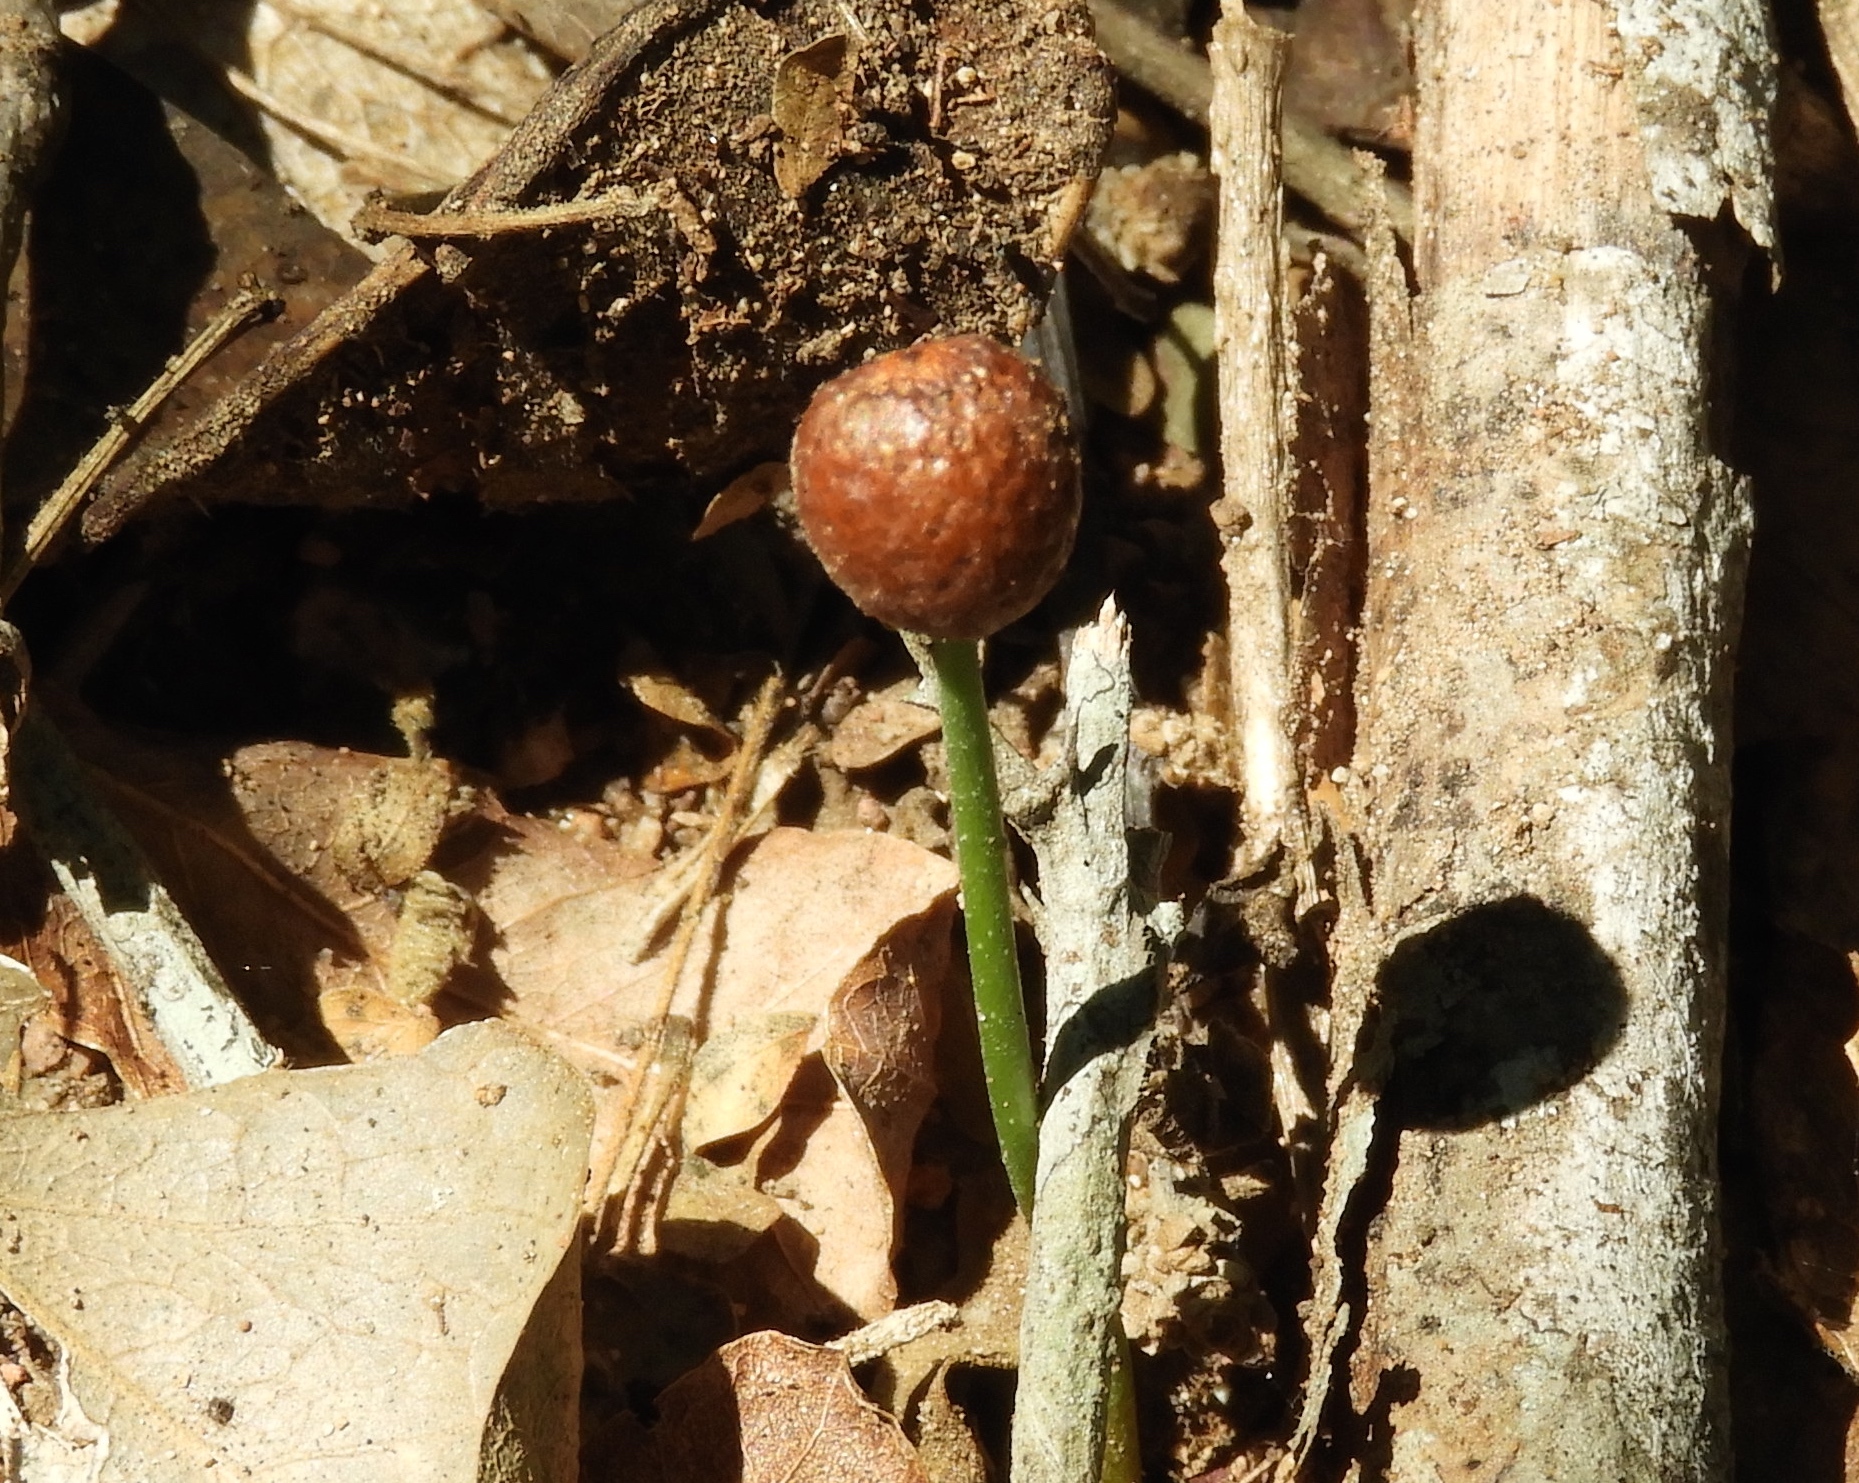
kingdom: Plantae
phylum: Tracheophyta
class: Magnoliopsida
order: Rosales
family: Rhamnaceae
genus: Sarcomphalus
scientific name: Sarcomphalus amole
